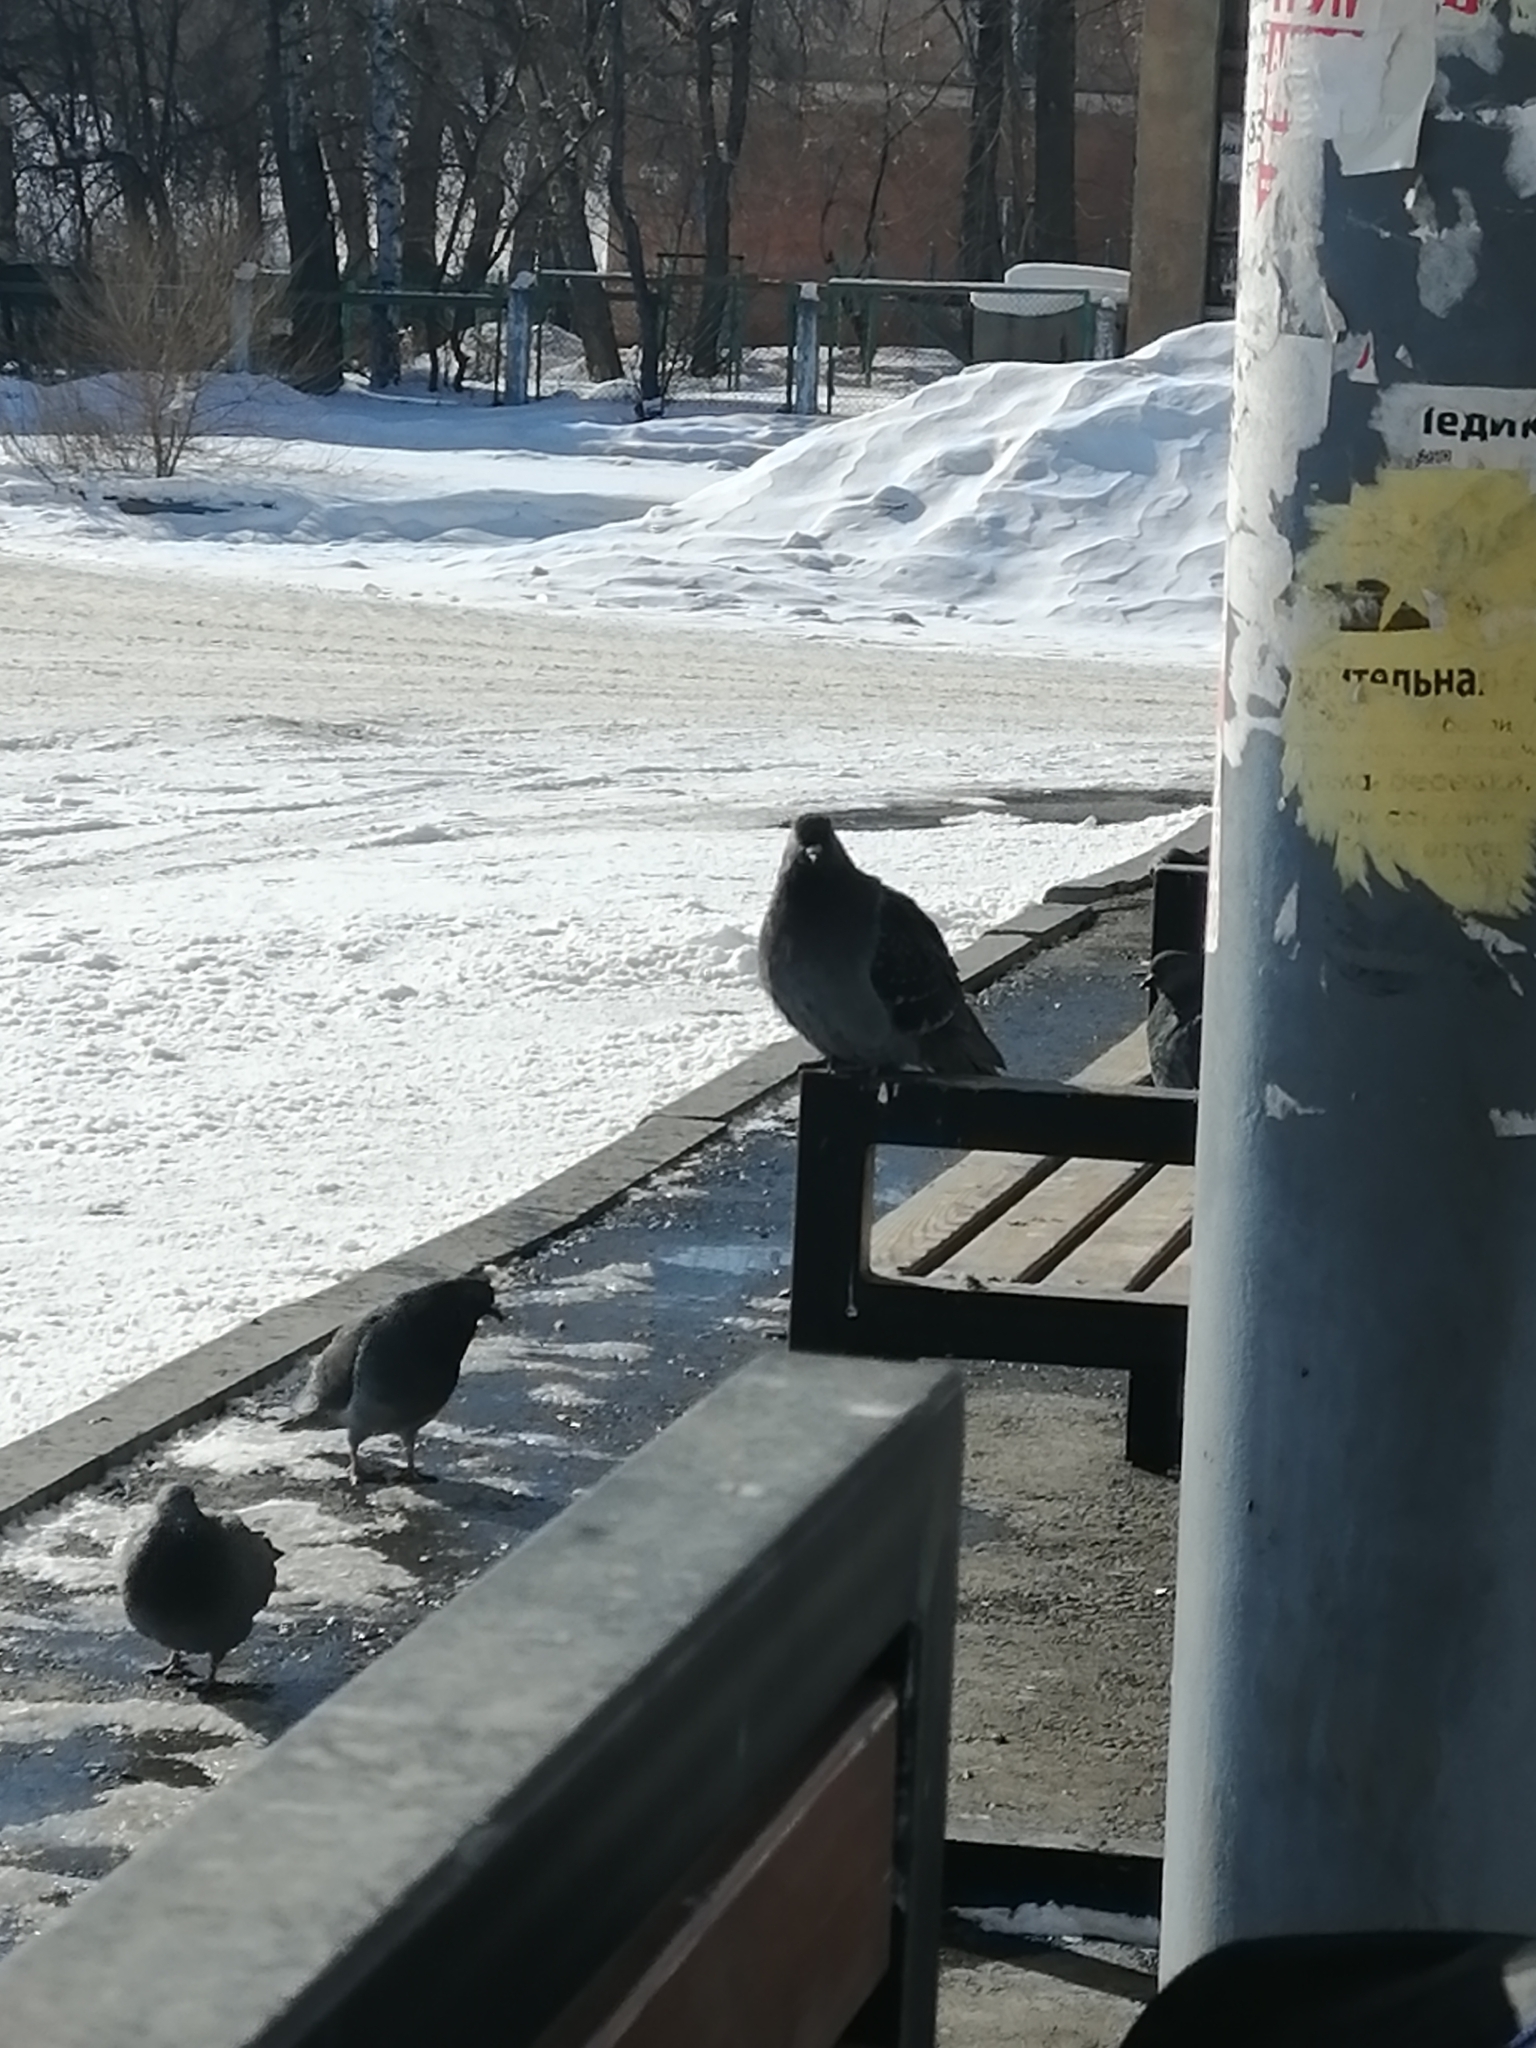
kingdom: Animalia
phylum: Chordata
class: Aves
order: Columbiformes
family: Columbidae
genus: Columba
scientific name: Columba livia
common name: Rock pigeon
